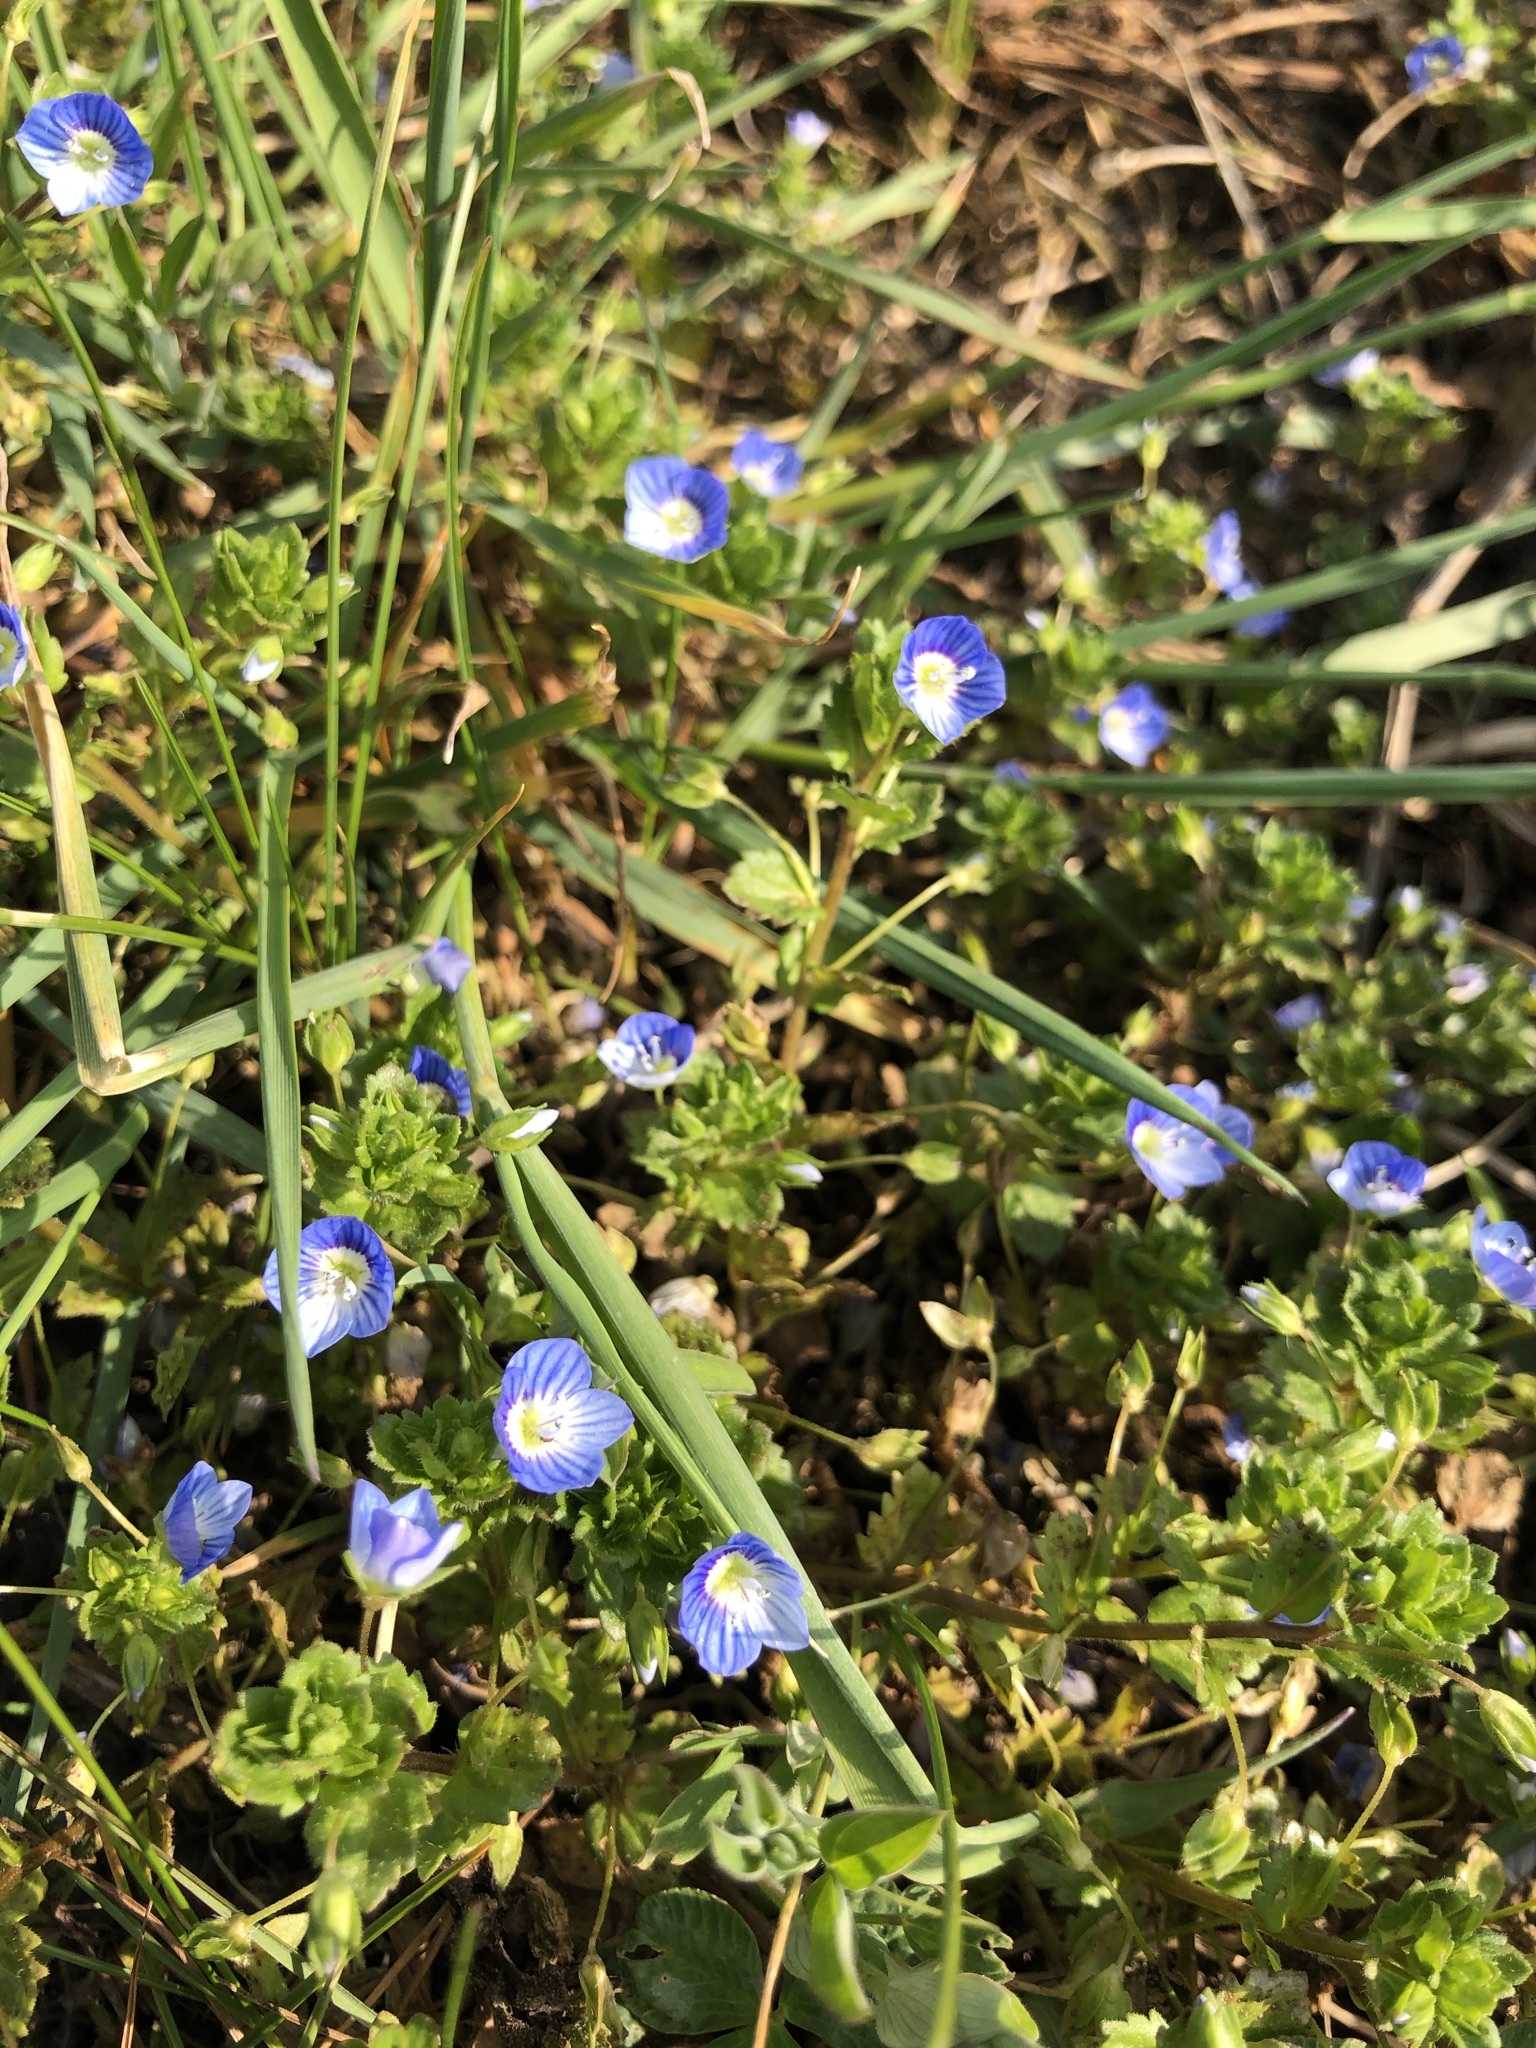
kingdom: Plantae
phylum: Tracheophyta
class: Magnoliopsida
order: Lamiales
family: Plantaginaceae
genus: Veronica
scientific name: Veronica persica
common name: Common field-speedwell
